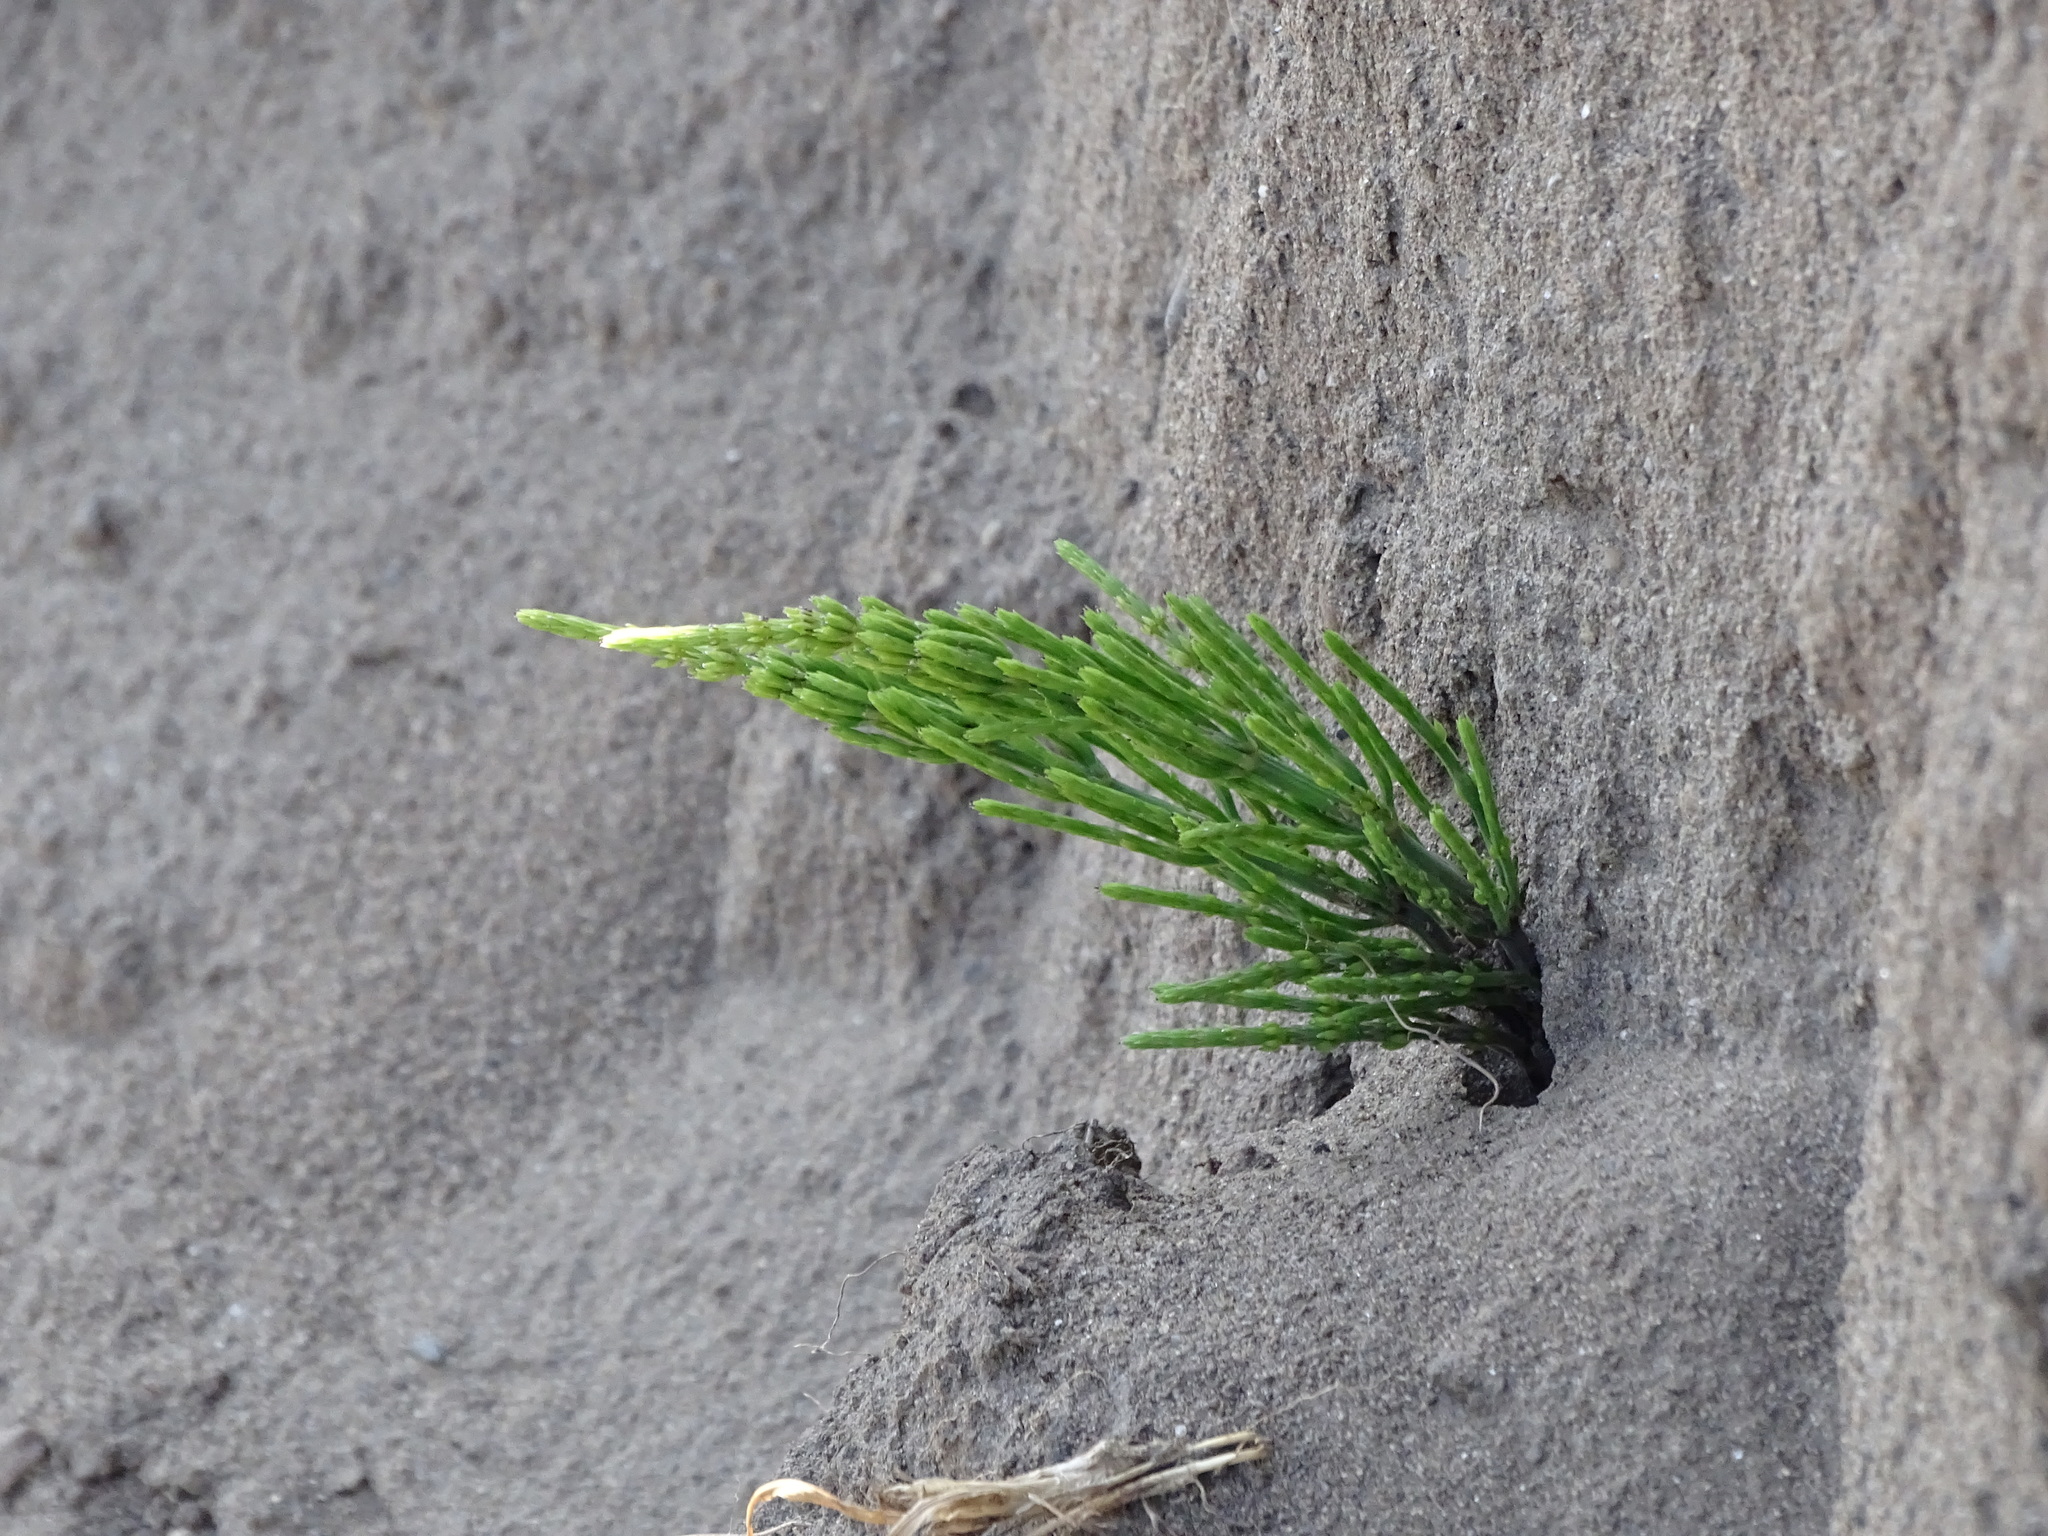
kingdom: Plantae
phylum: Tracheophyta
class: Polypodiopsida
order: Equisetales
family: Equisetaceae
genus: Equisetum
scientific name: Equisetum arvense
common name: Field horsetail
